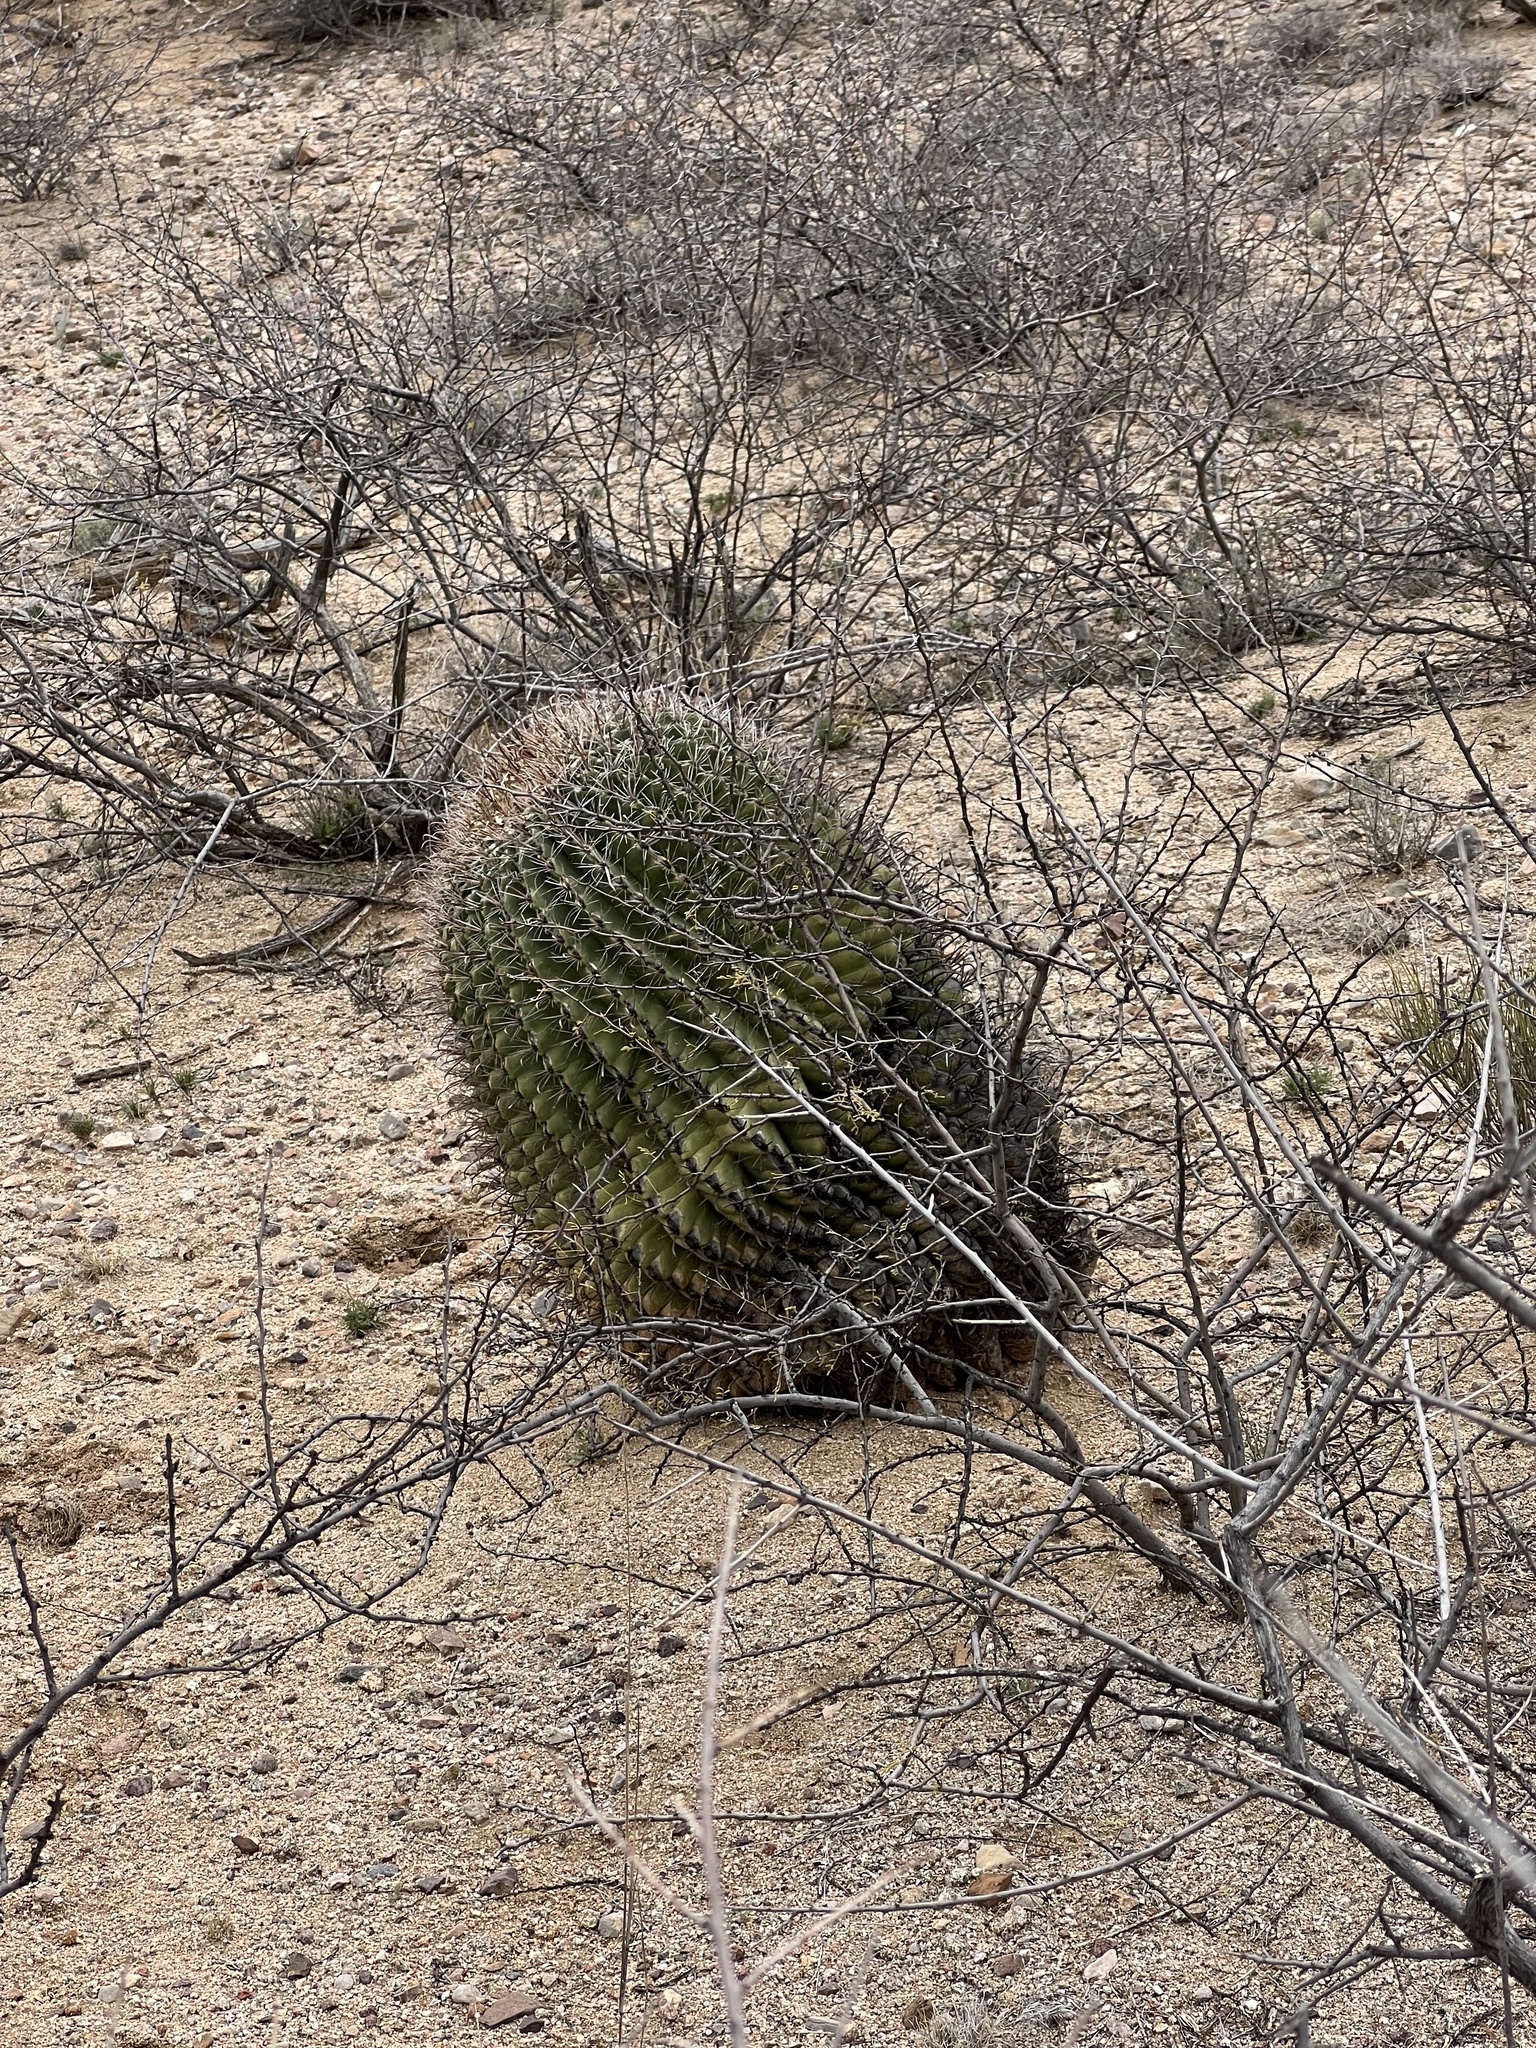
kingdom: Plantae
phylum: Tracheophyta
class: Magnoliopsida
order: Caryophyllales
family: Cactaceae
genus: Ferocactus
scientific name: Ferocactus wislizeni
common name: Candy barrel cactus
